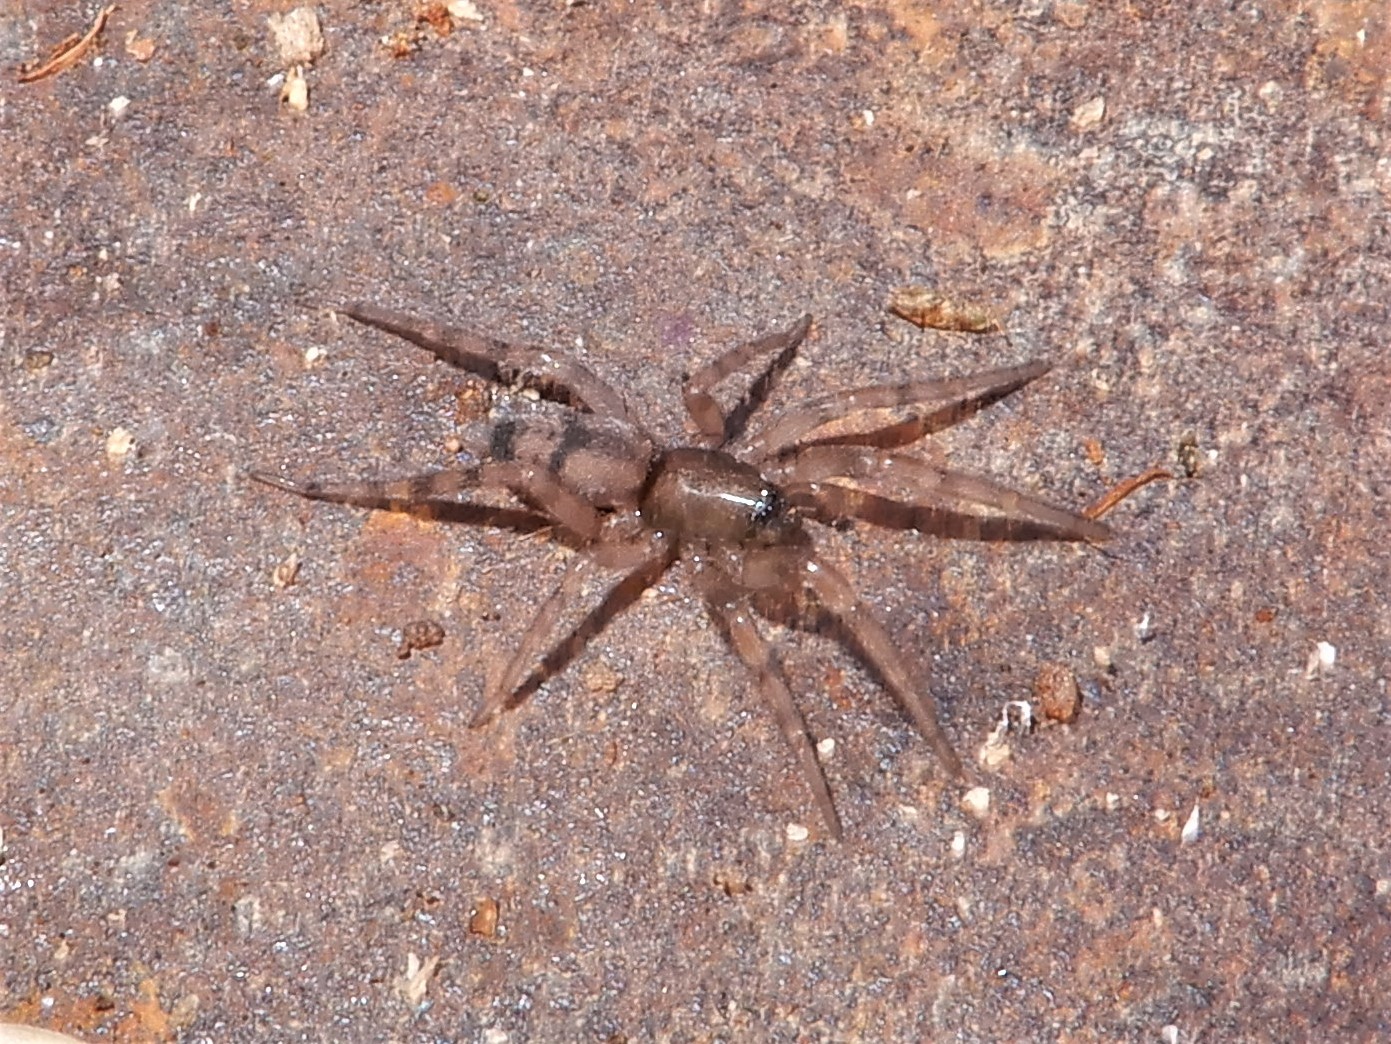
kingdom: Animalia
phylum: Arthropoda
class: Arachnida
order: Araneae
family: Gnaphosidae
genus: Intruda
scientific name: Intruda signata
